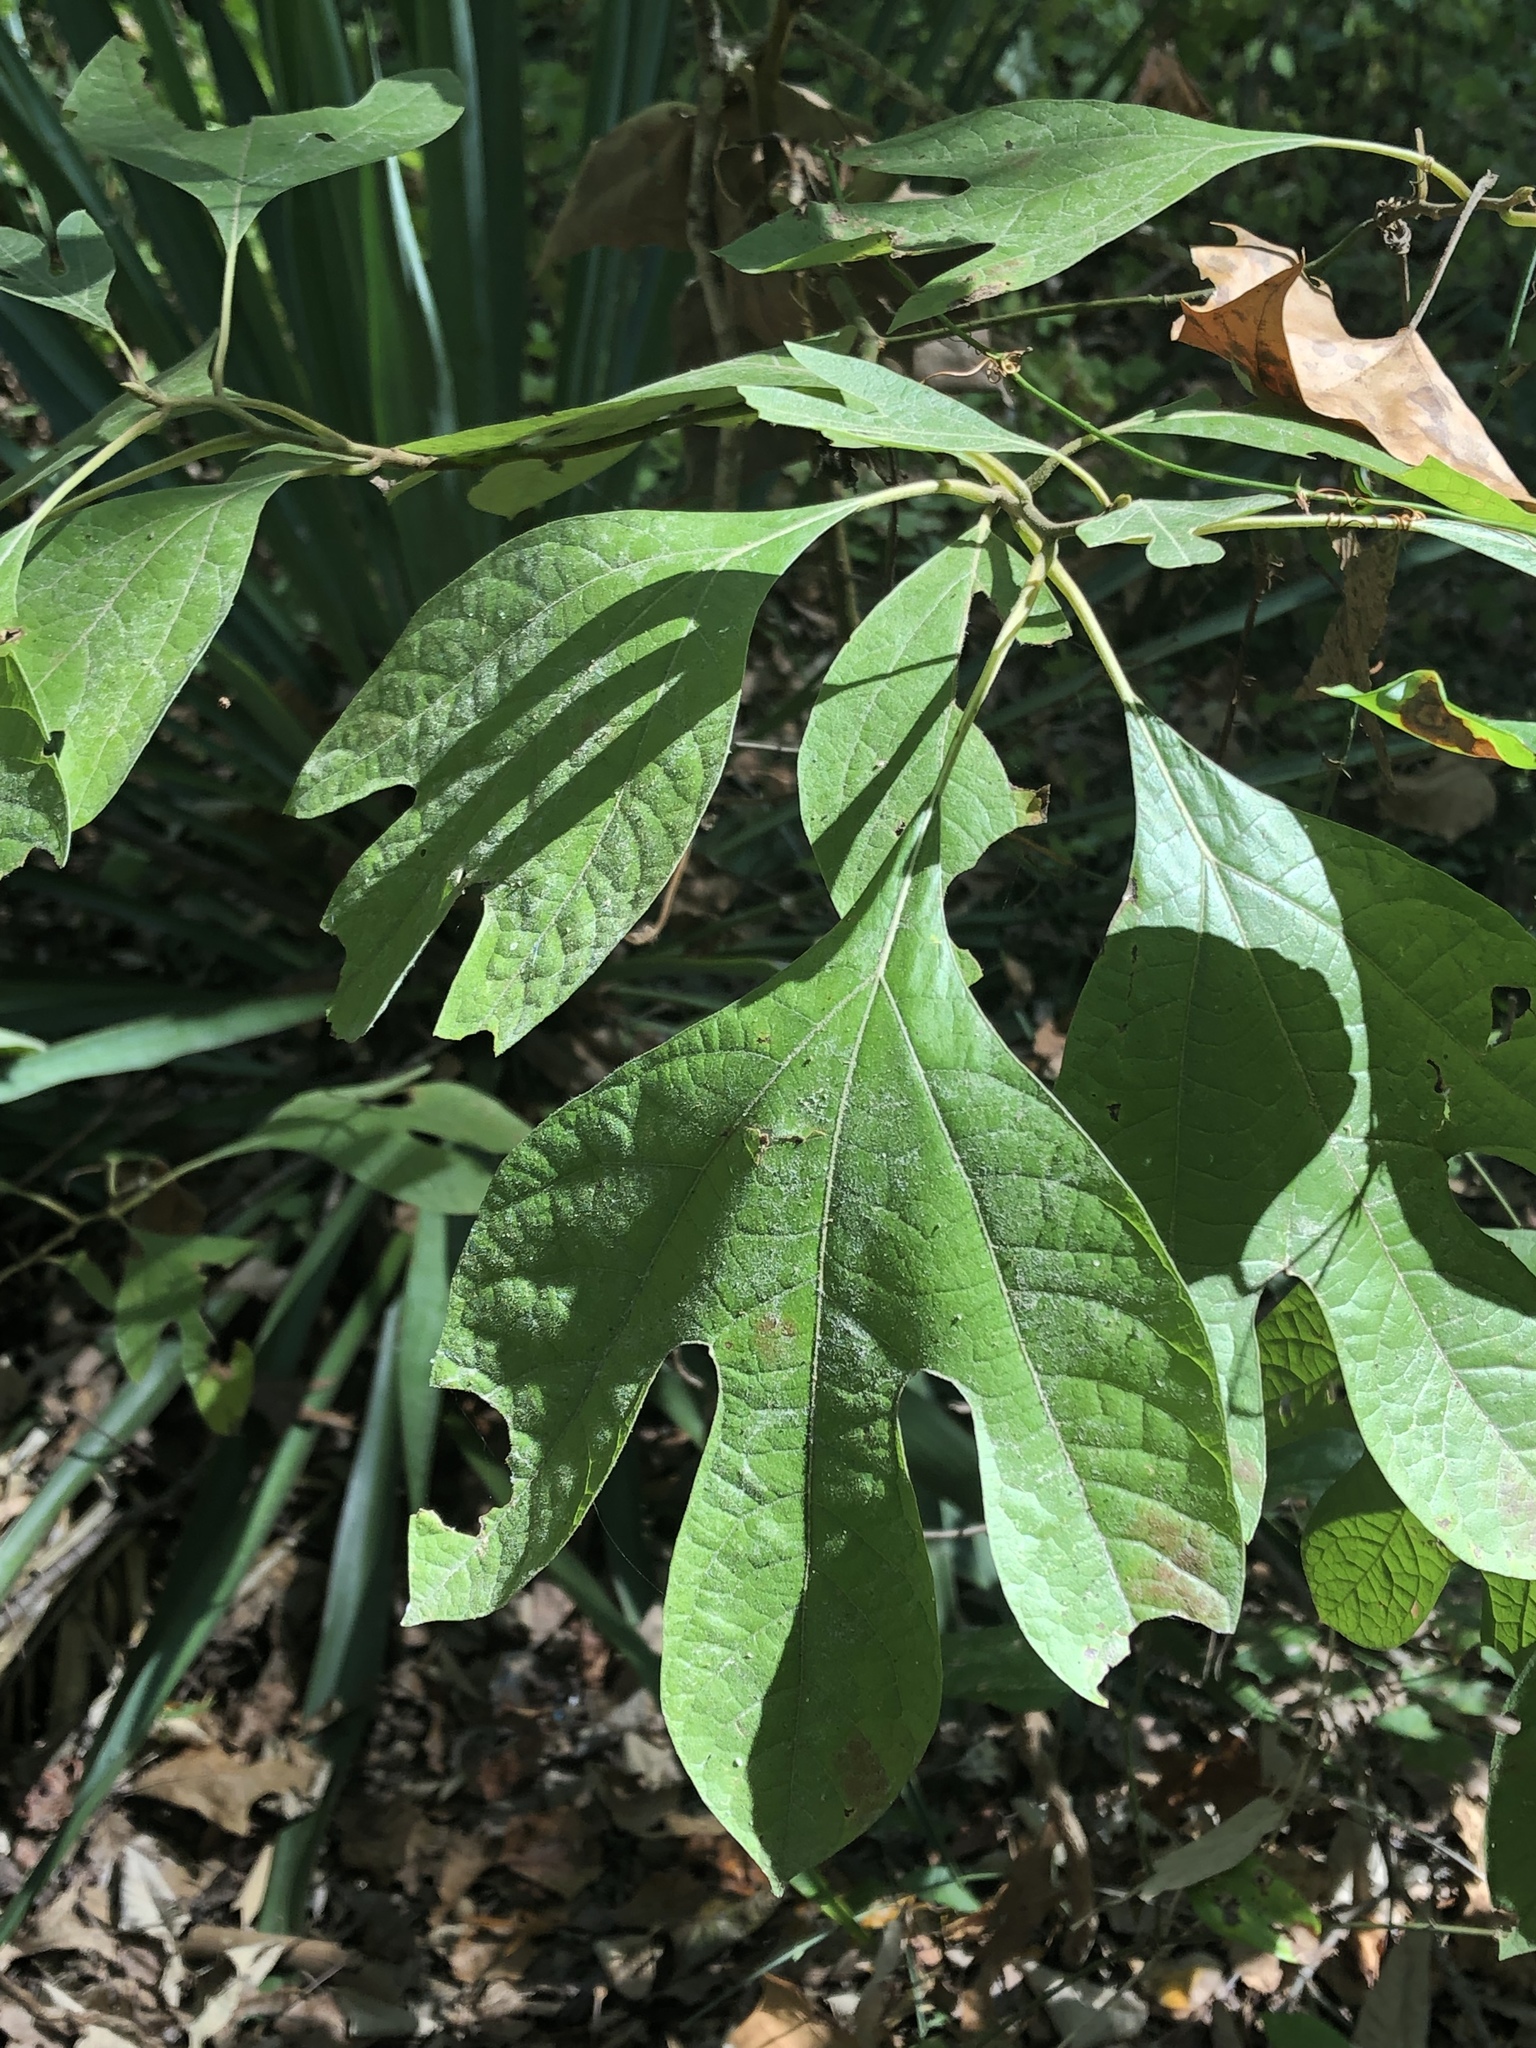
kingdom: Plantae
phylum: Tracheophyta
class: Magnoliopsida
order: Laurales
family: Lauraceae
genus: Sassafras
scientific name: Sassafras albidum
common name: Sassafras
